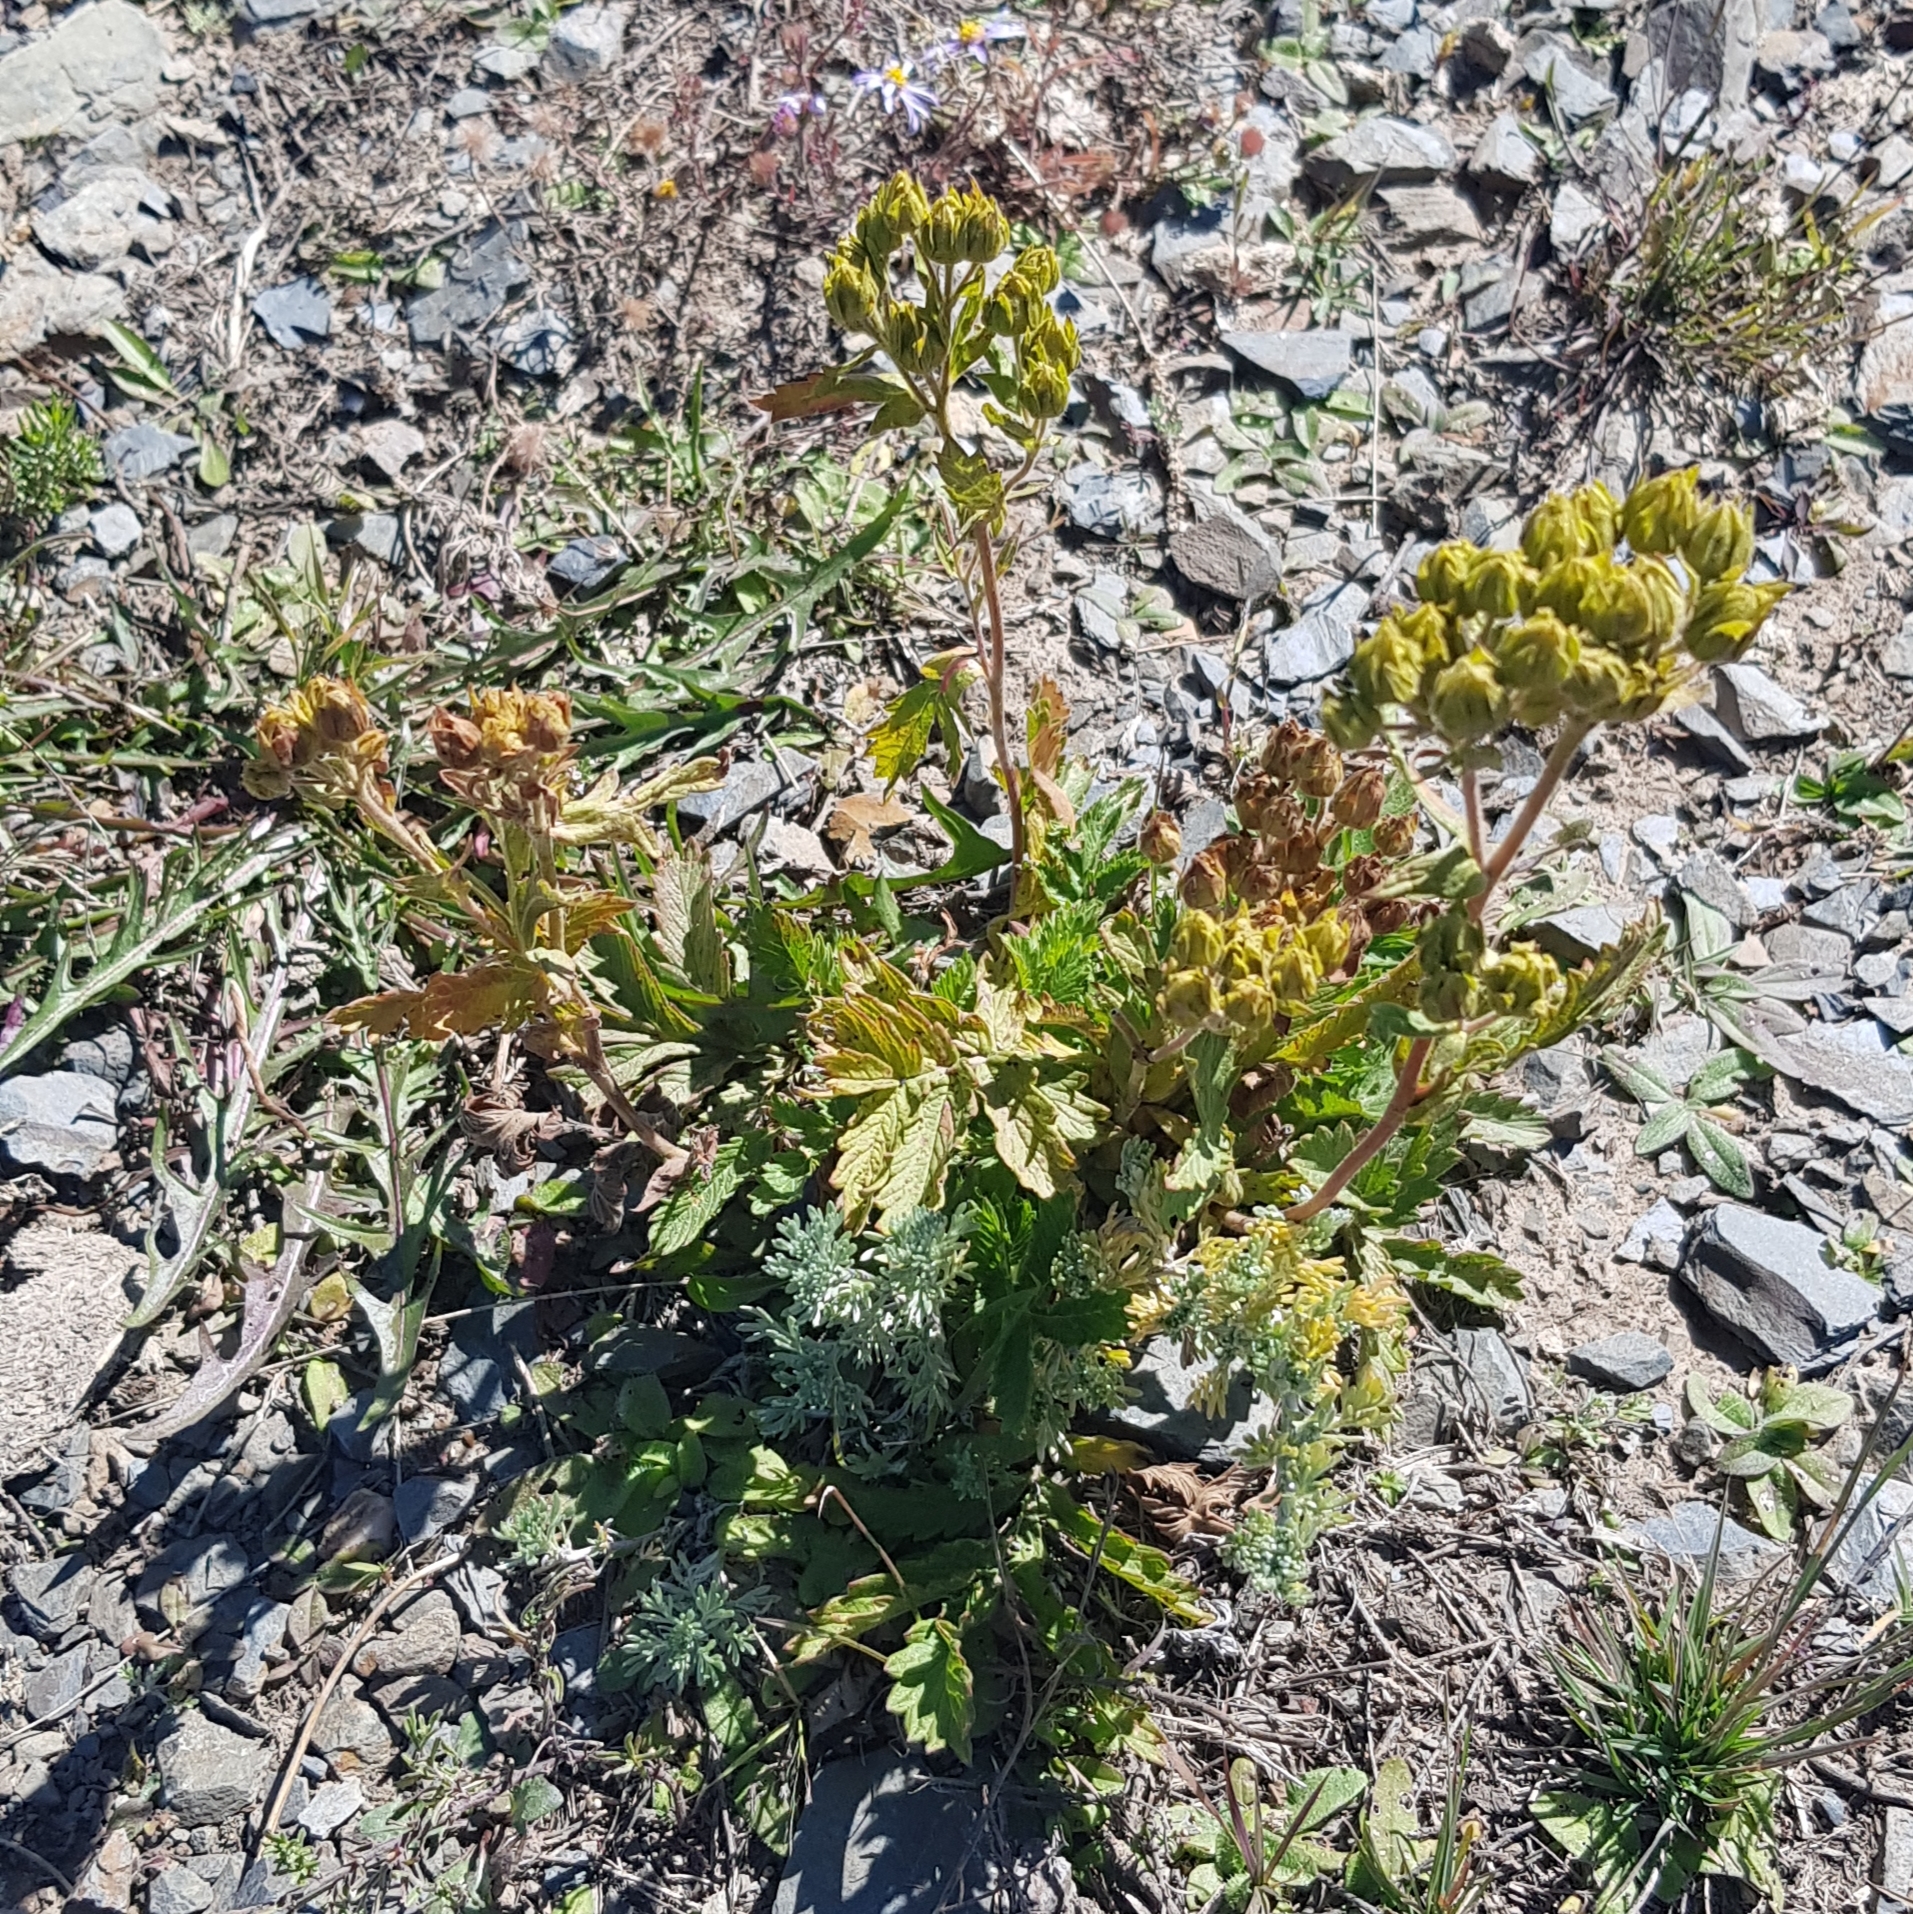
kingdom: Plantae
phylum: Tracheophyta
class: Magnoliopsida
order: Rosales
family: Rosaceae
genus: Potentilla
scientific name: Potentilla tanacetifolia
